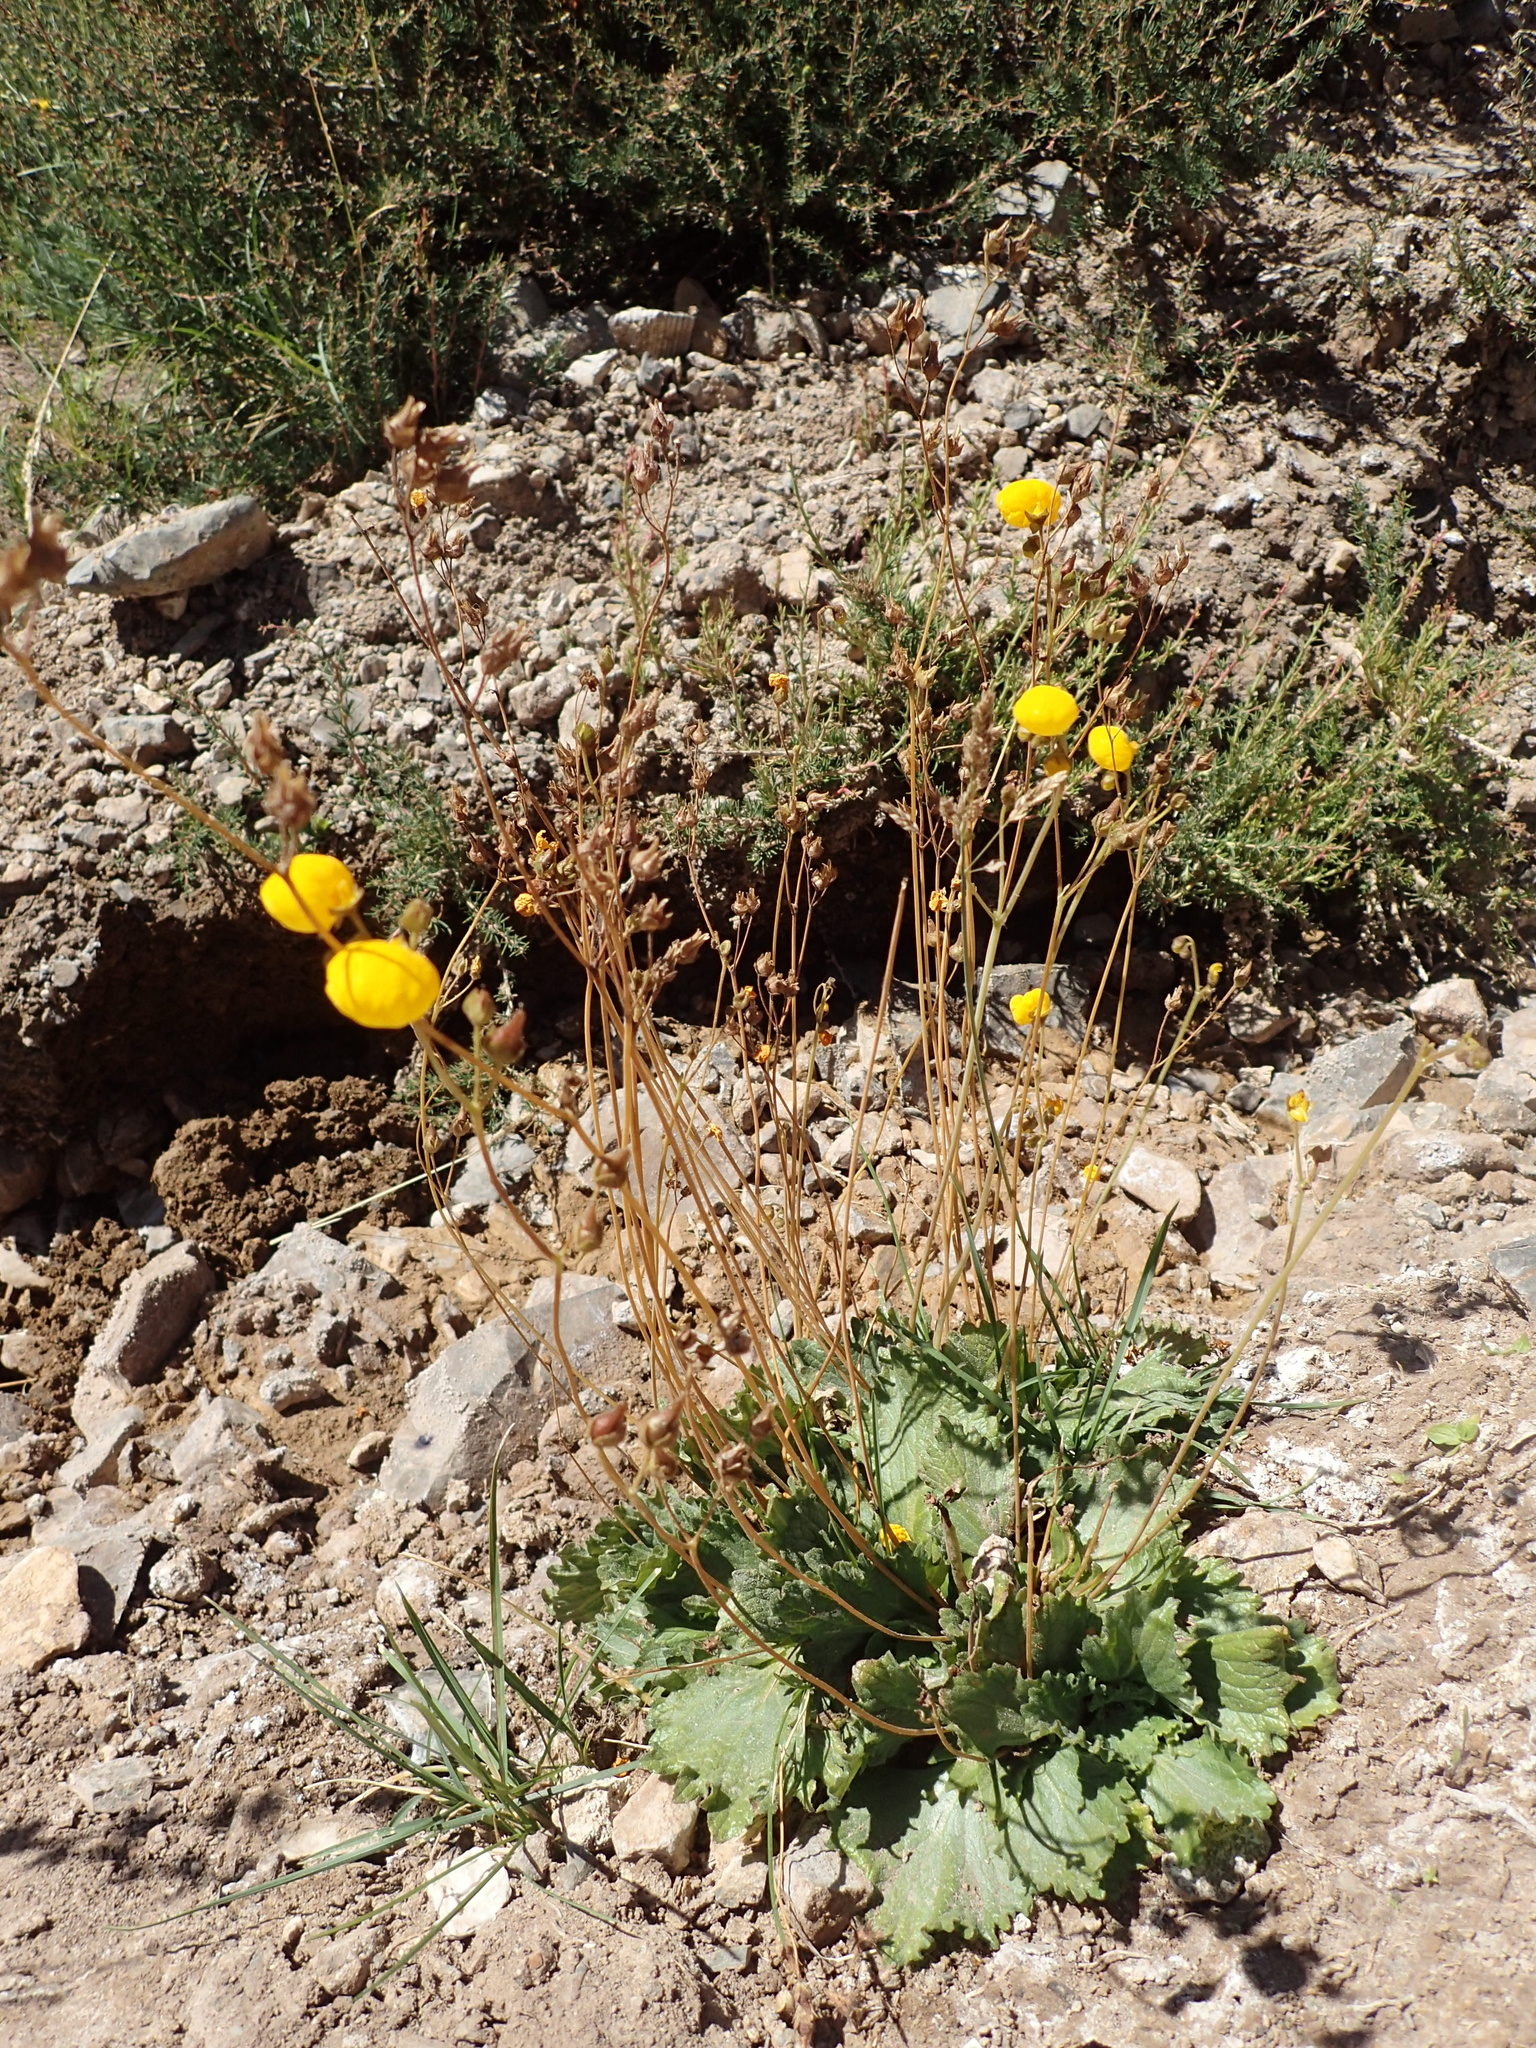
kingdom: Plantae
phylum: Tracheophyta
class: Magnoliopsida
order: Lamiales
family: Calceolariaceae
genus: Calceolaria
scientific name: Calceolaria filicaulis
